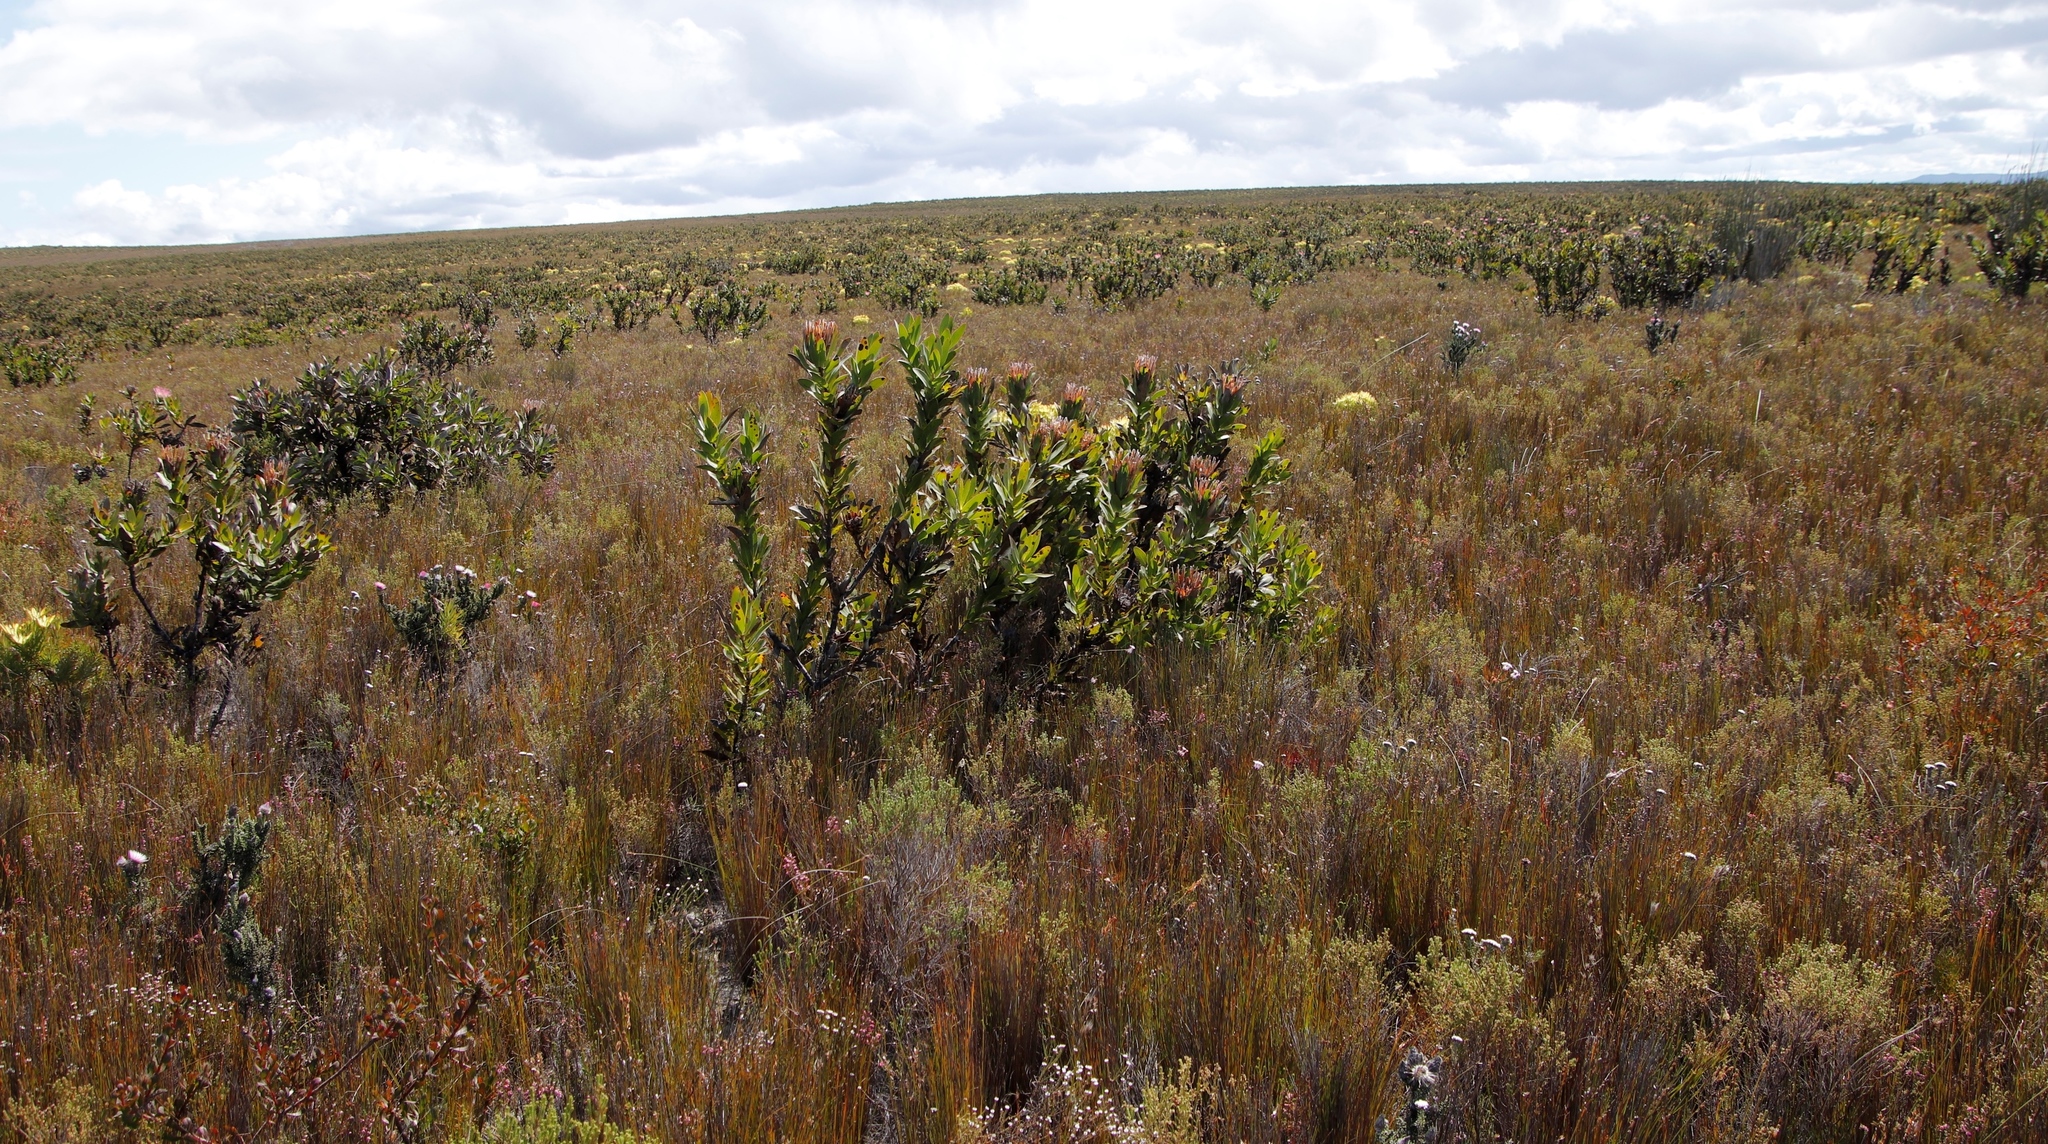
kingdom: Plantae
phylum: Tracheophyta
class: Magnoliopsida
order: Proteales
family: Proteaceae
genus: Protea
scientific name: Protea compacta
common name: Bot river protea
